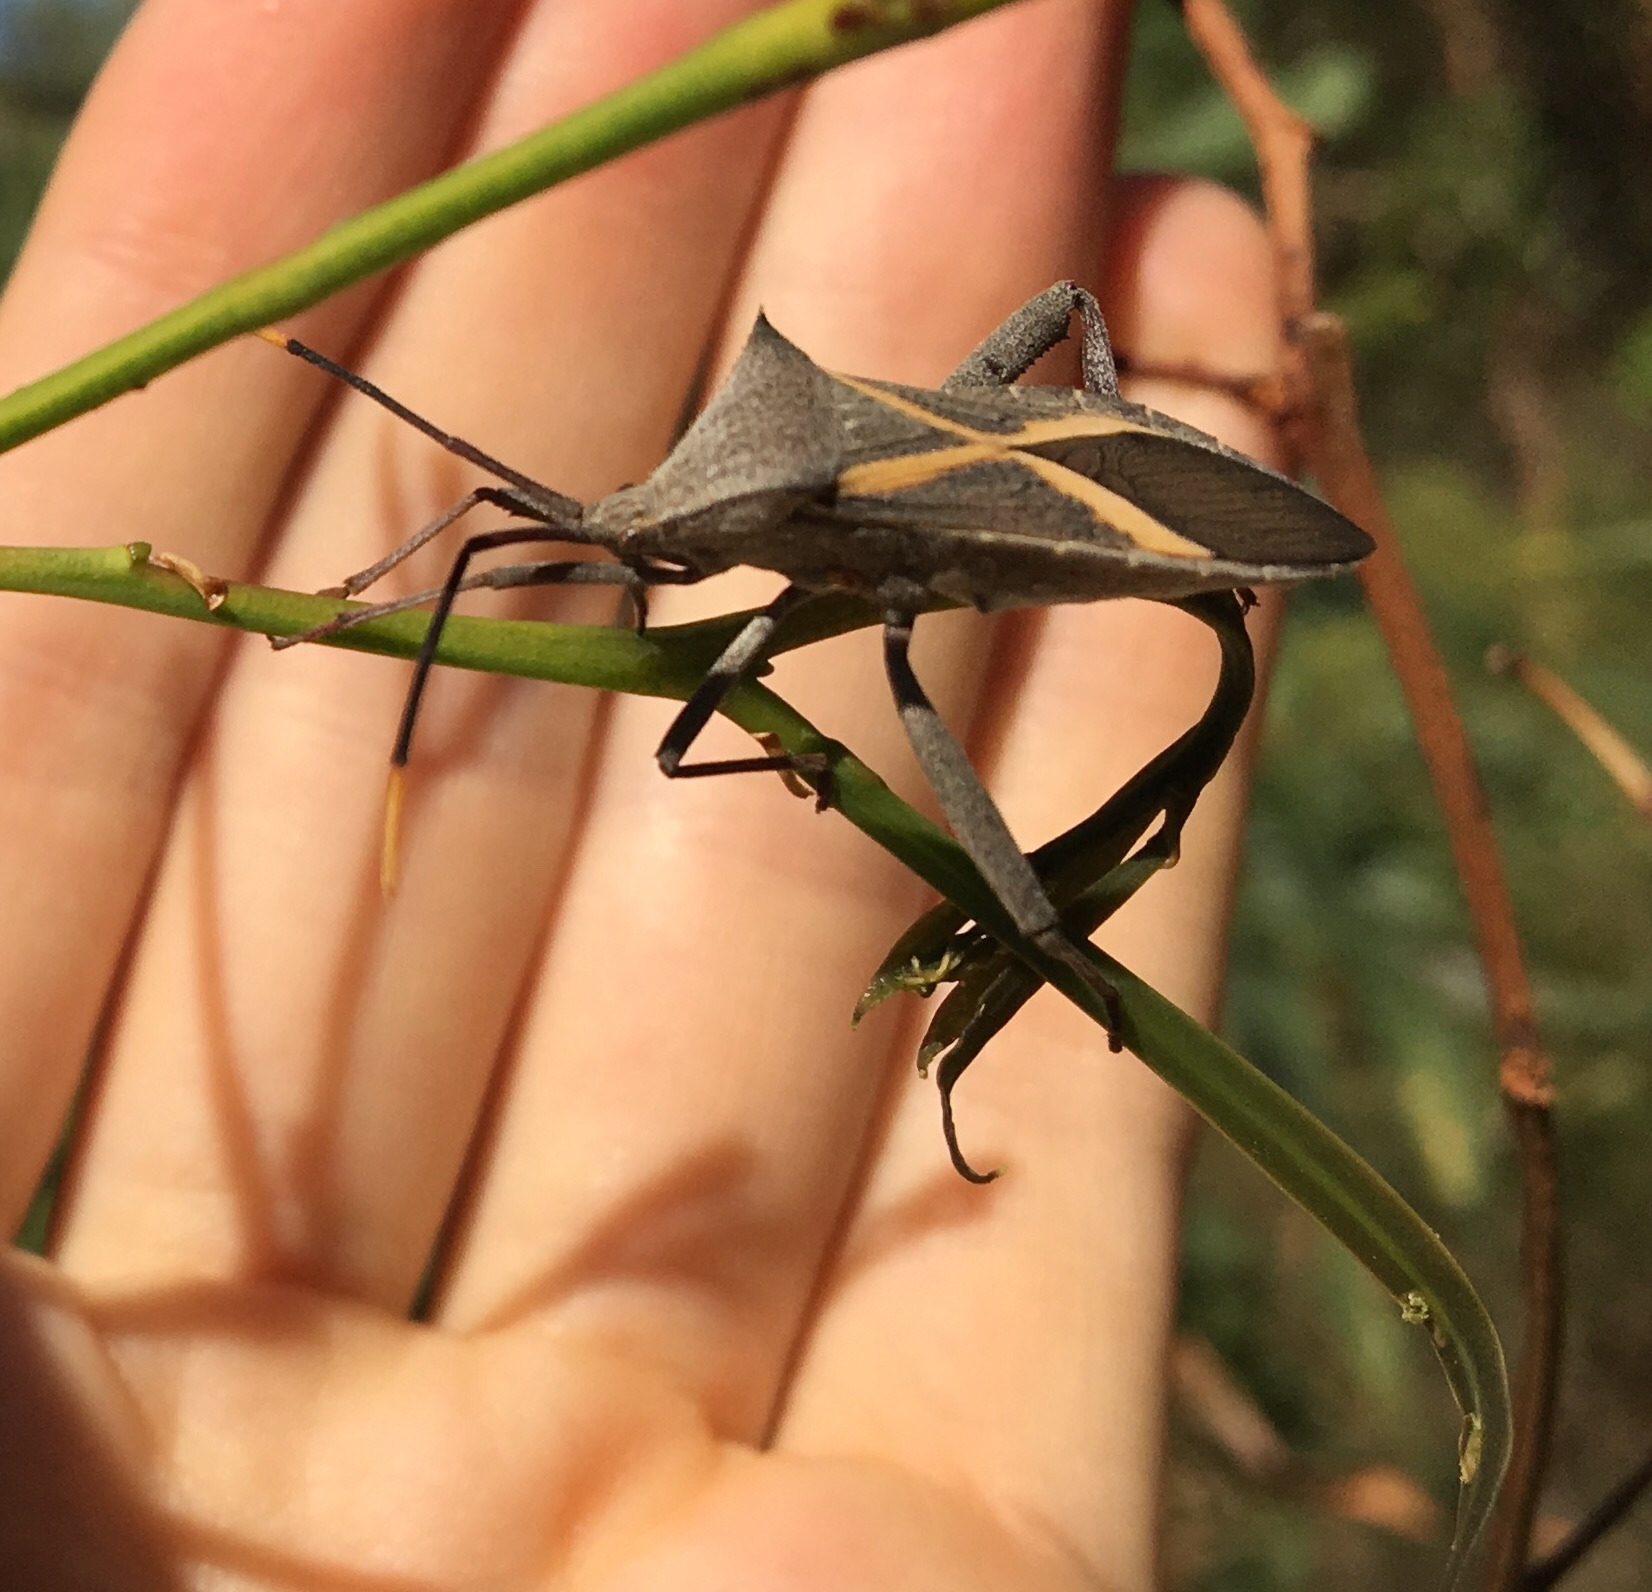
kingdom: Animalia
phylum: Arthropoda
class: Insecta
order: Hemiptera
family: Coreidae
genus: Mictis
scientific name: Mictis profana
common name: Crusader bug
